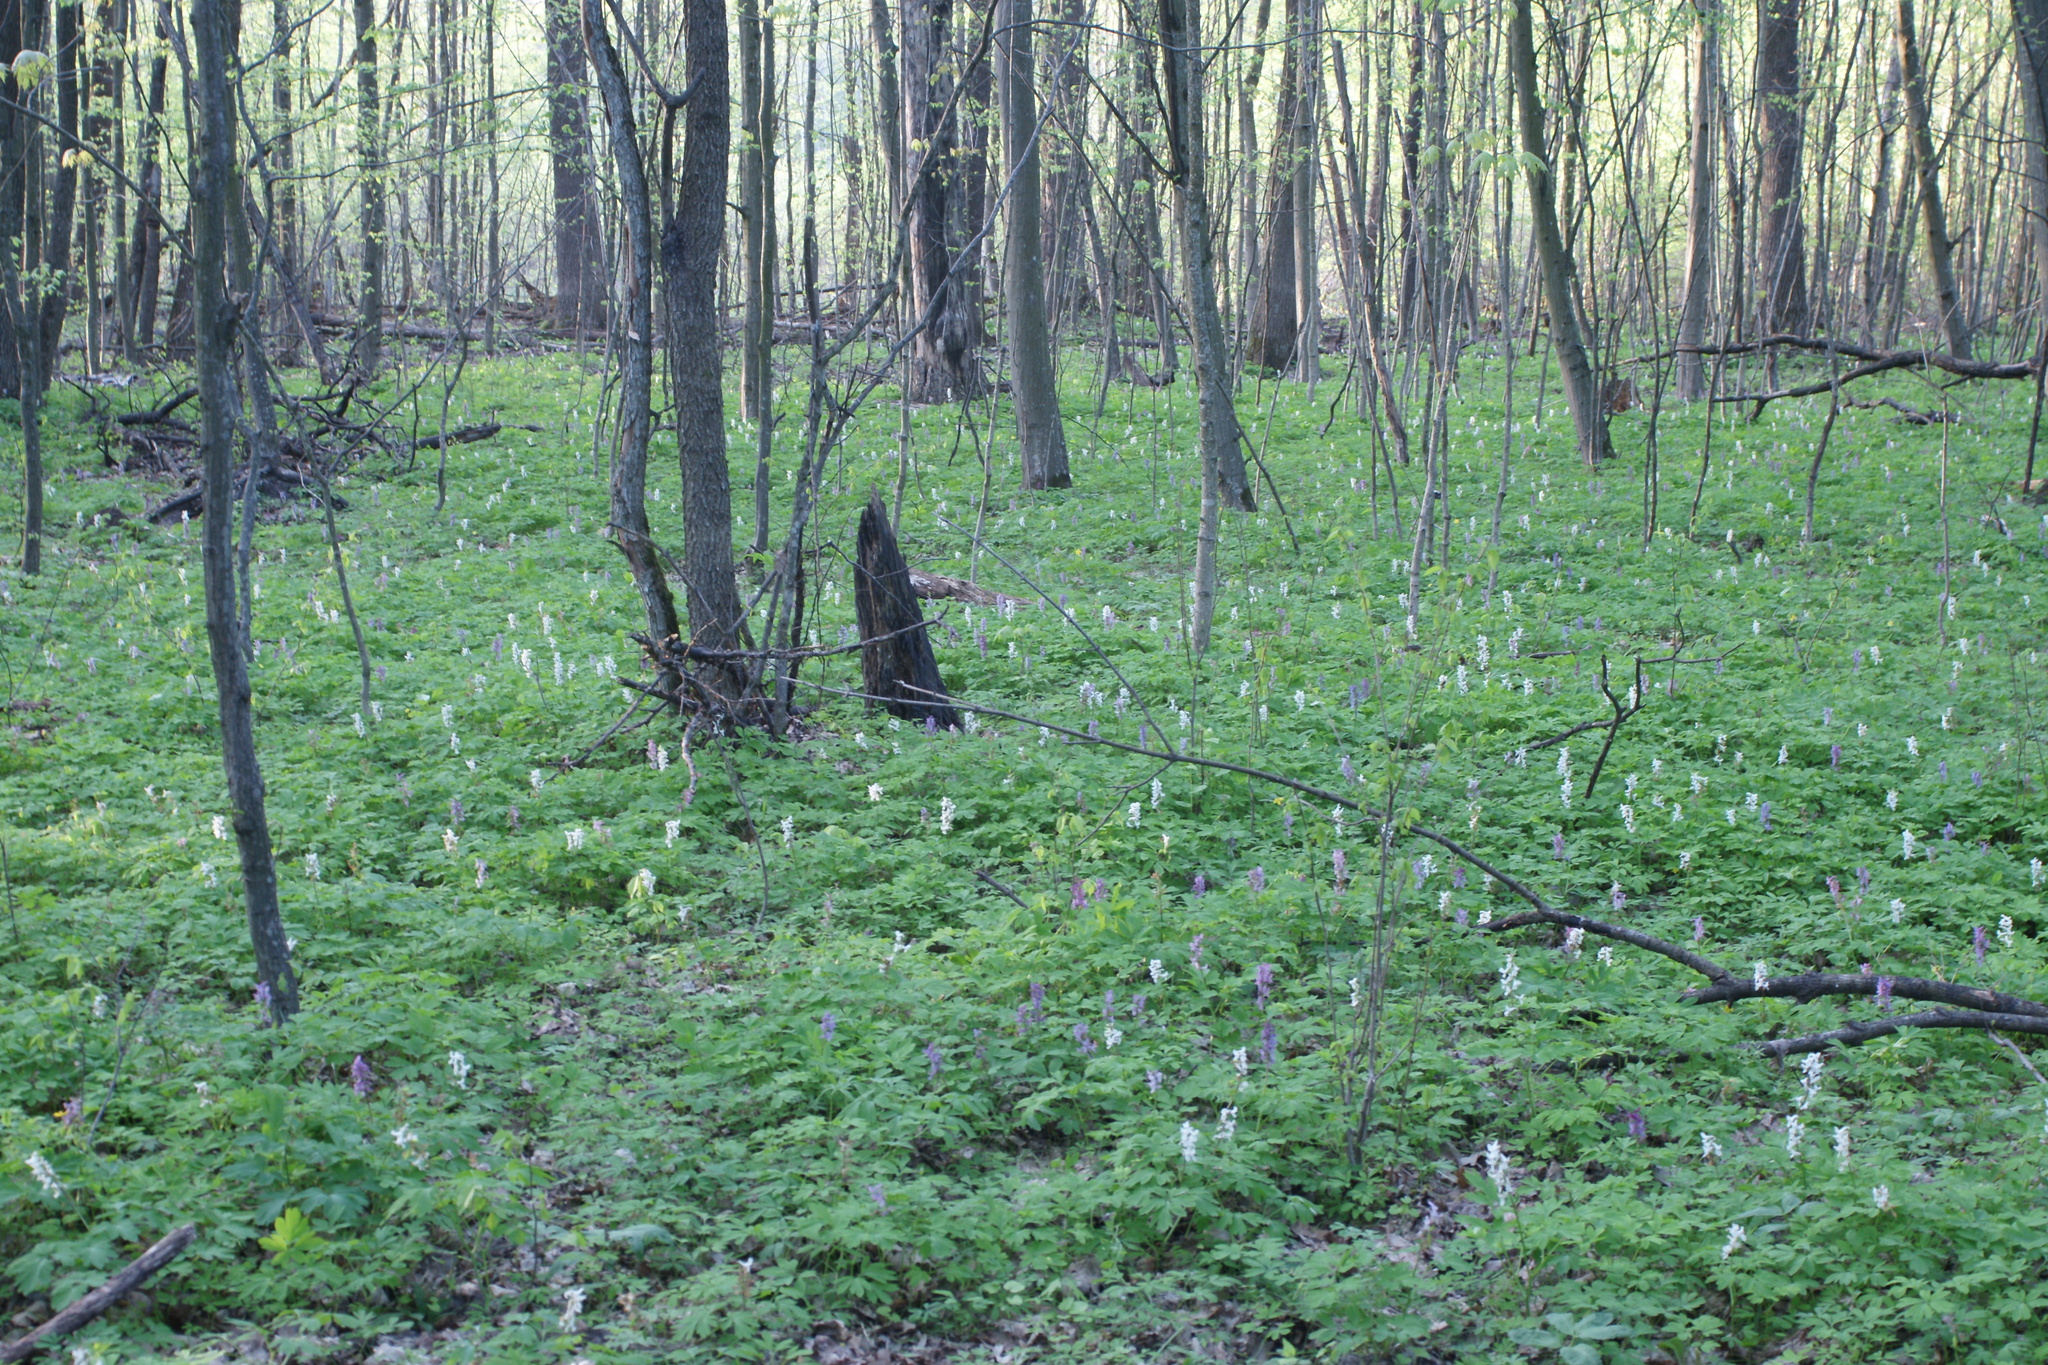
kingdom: Plantae
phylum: Tracheophyta
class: Magnoliopsida
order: Ranunculales
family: Papaveraceae
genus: Corydalis
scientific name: Corydalis cava
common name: Hollowroot
